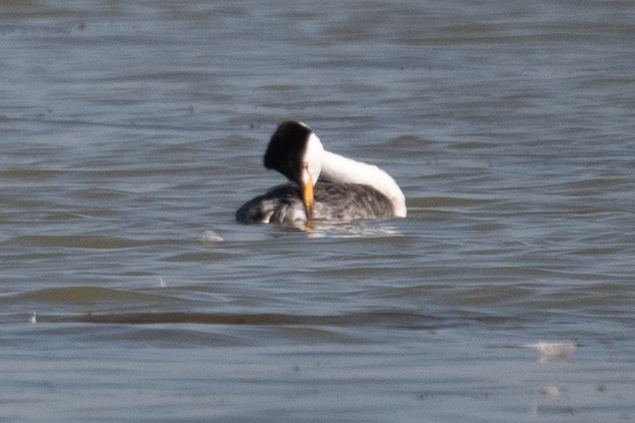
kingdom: Animalia
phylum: Chordata
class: Aves
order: Podicipediformes
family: Podicipedidae
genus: Aechmophorus
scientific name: Aechmophorus clarkii
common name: Clark's grebe
